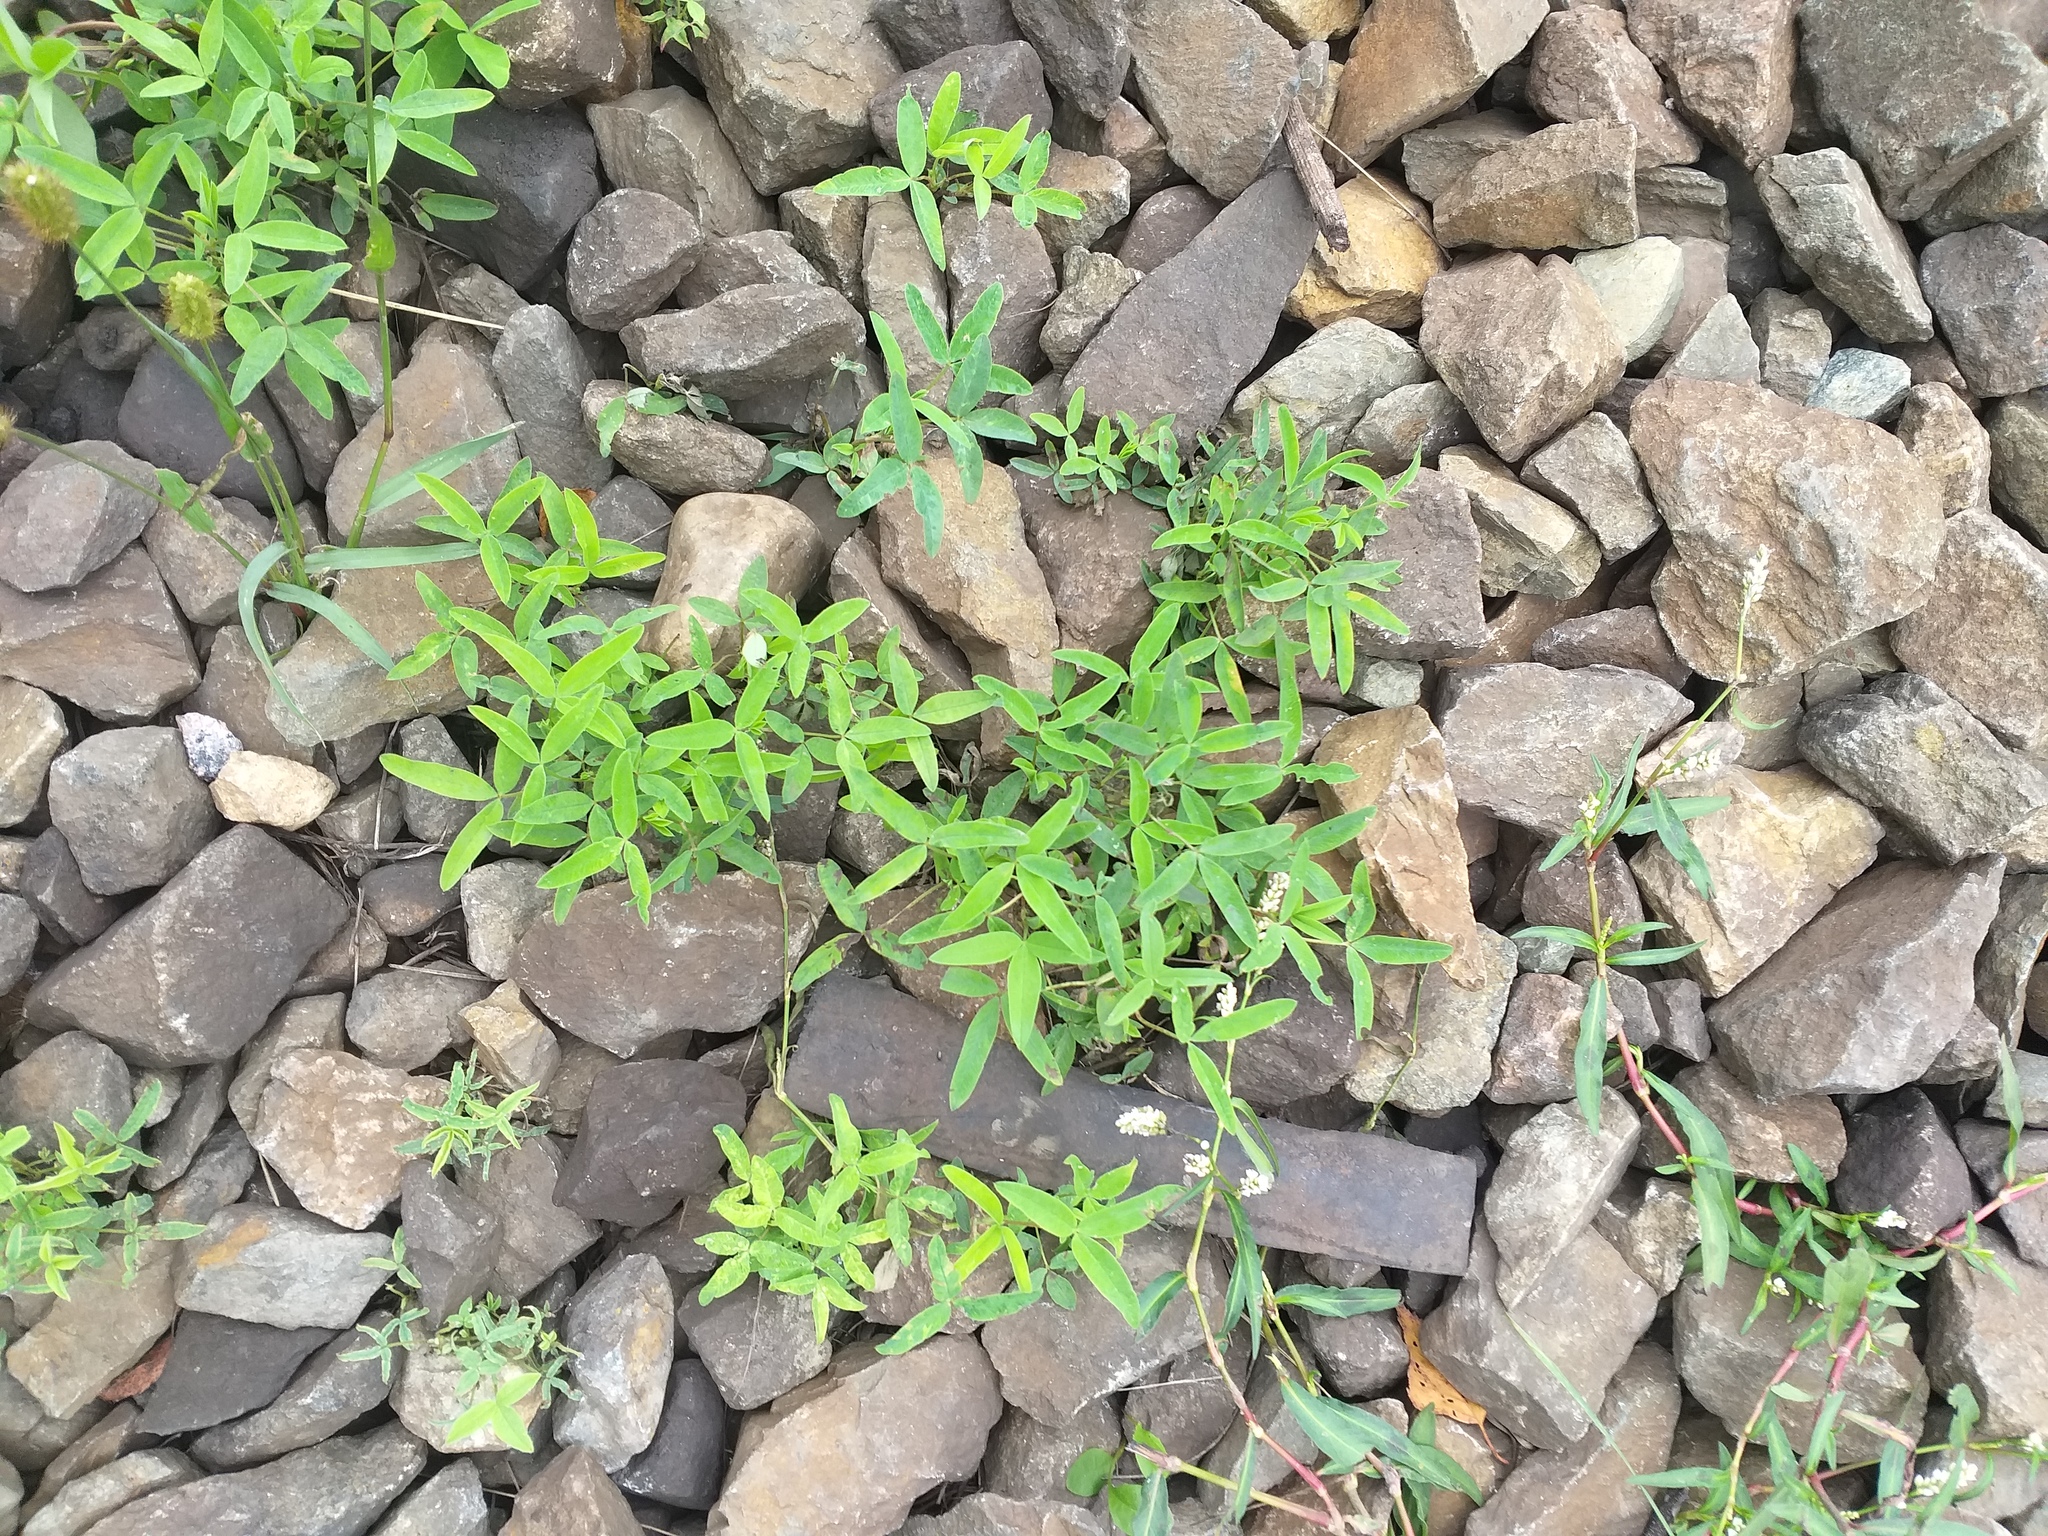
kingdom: Plantae
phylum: Tracheophyta
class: Magnoliopsida
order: Fabales
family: Fabaceae
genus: Trifolium
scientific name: Trifolium medium
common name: Zigzag clover
